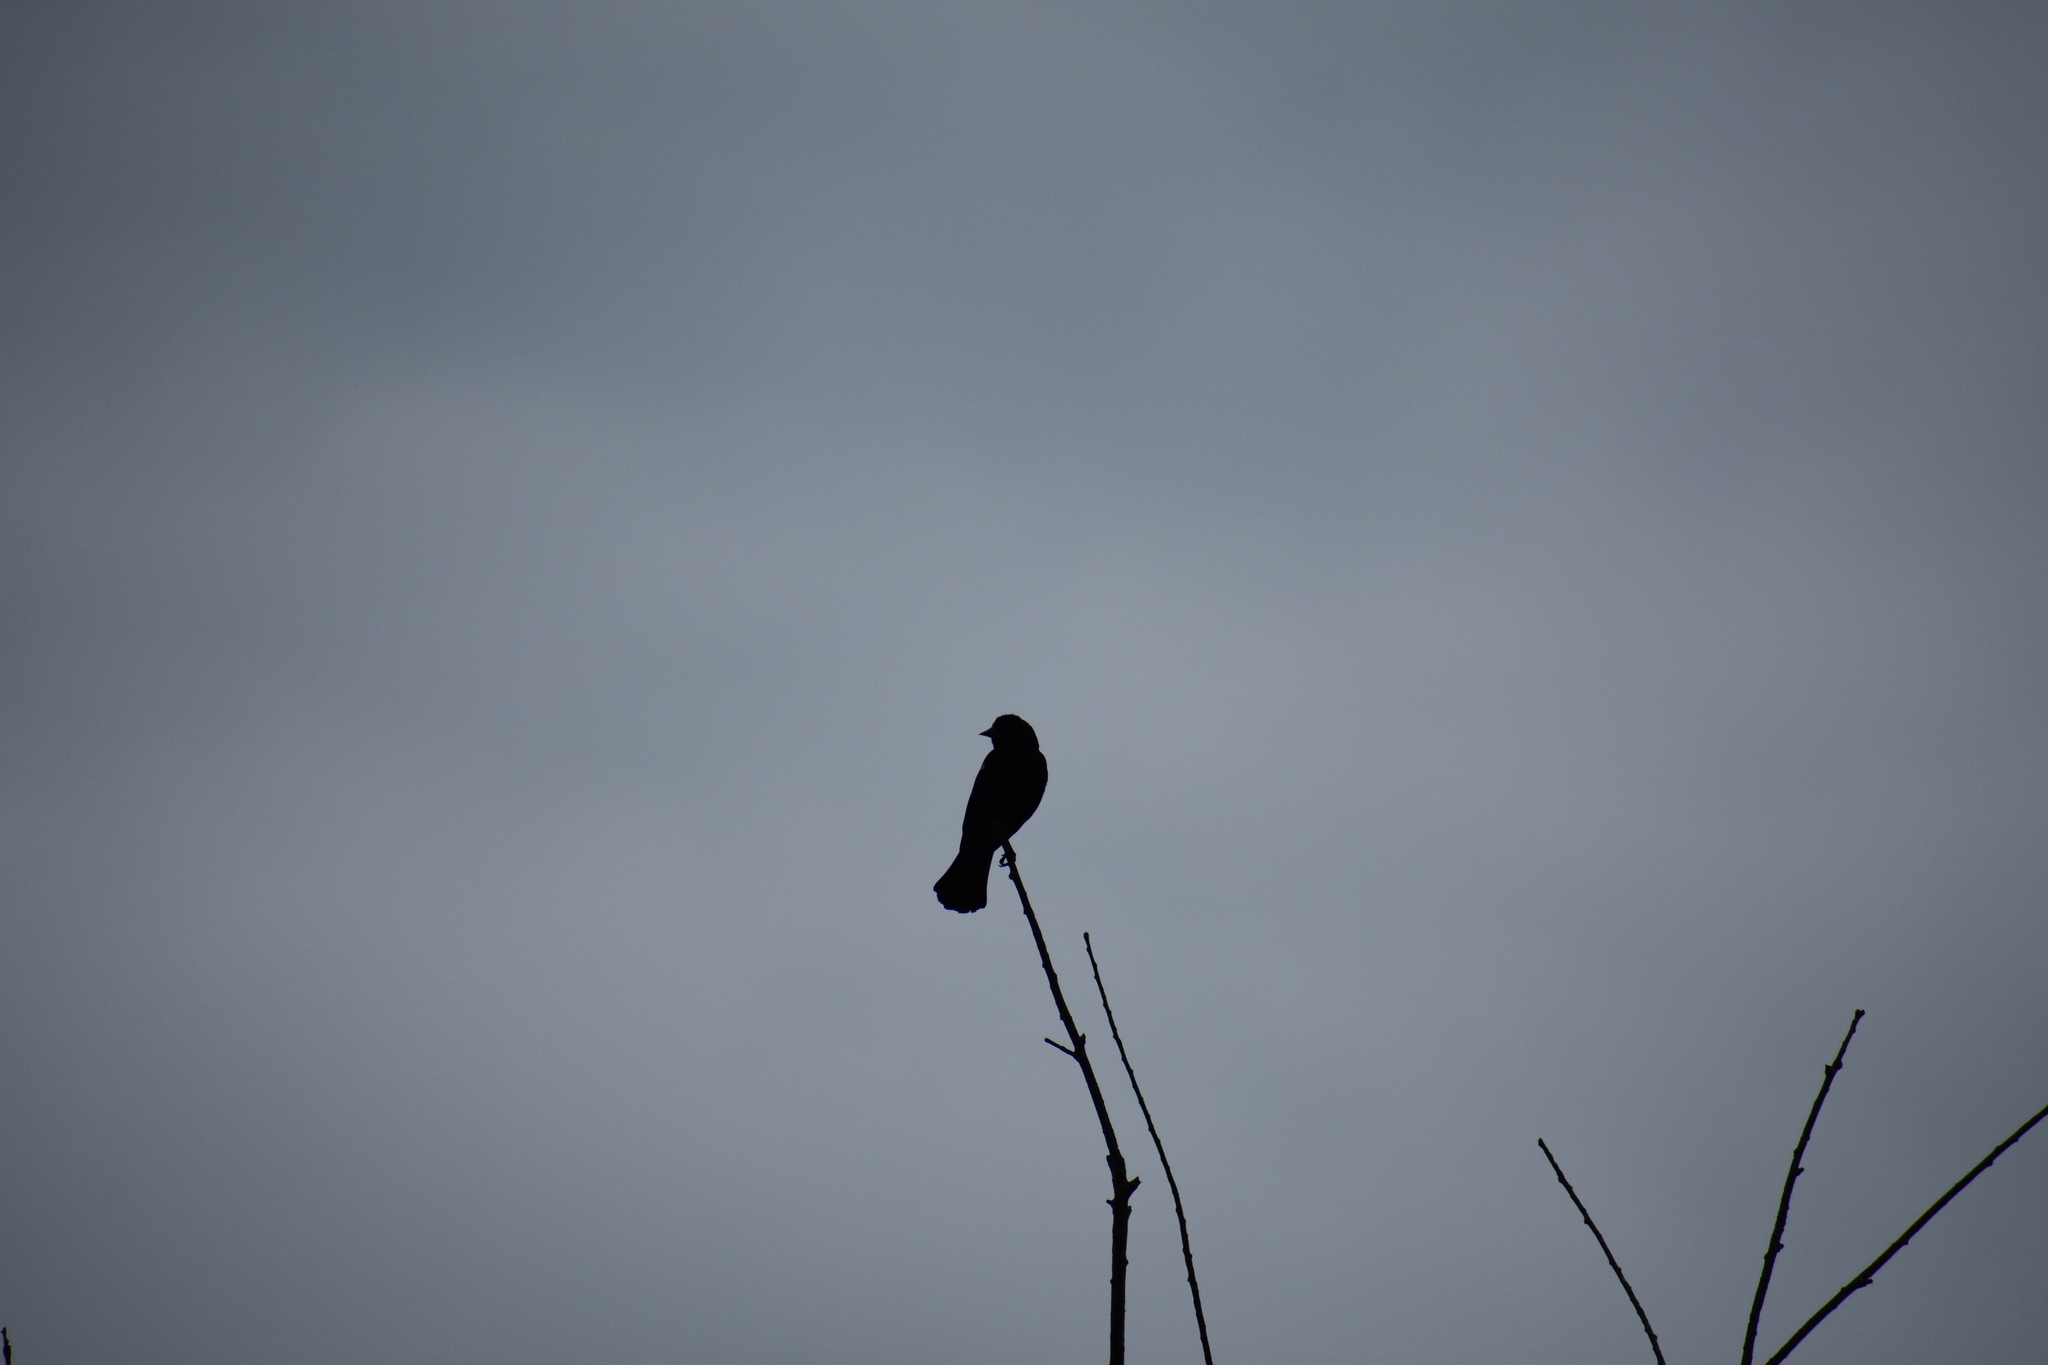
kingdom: Animalia
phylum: Chordata
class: Aves
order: Passeriformes
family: Icteridae
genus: Agelaius
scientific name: Agelaius phoeniceus
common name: Red-winged blackbird
